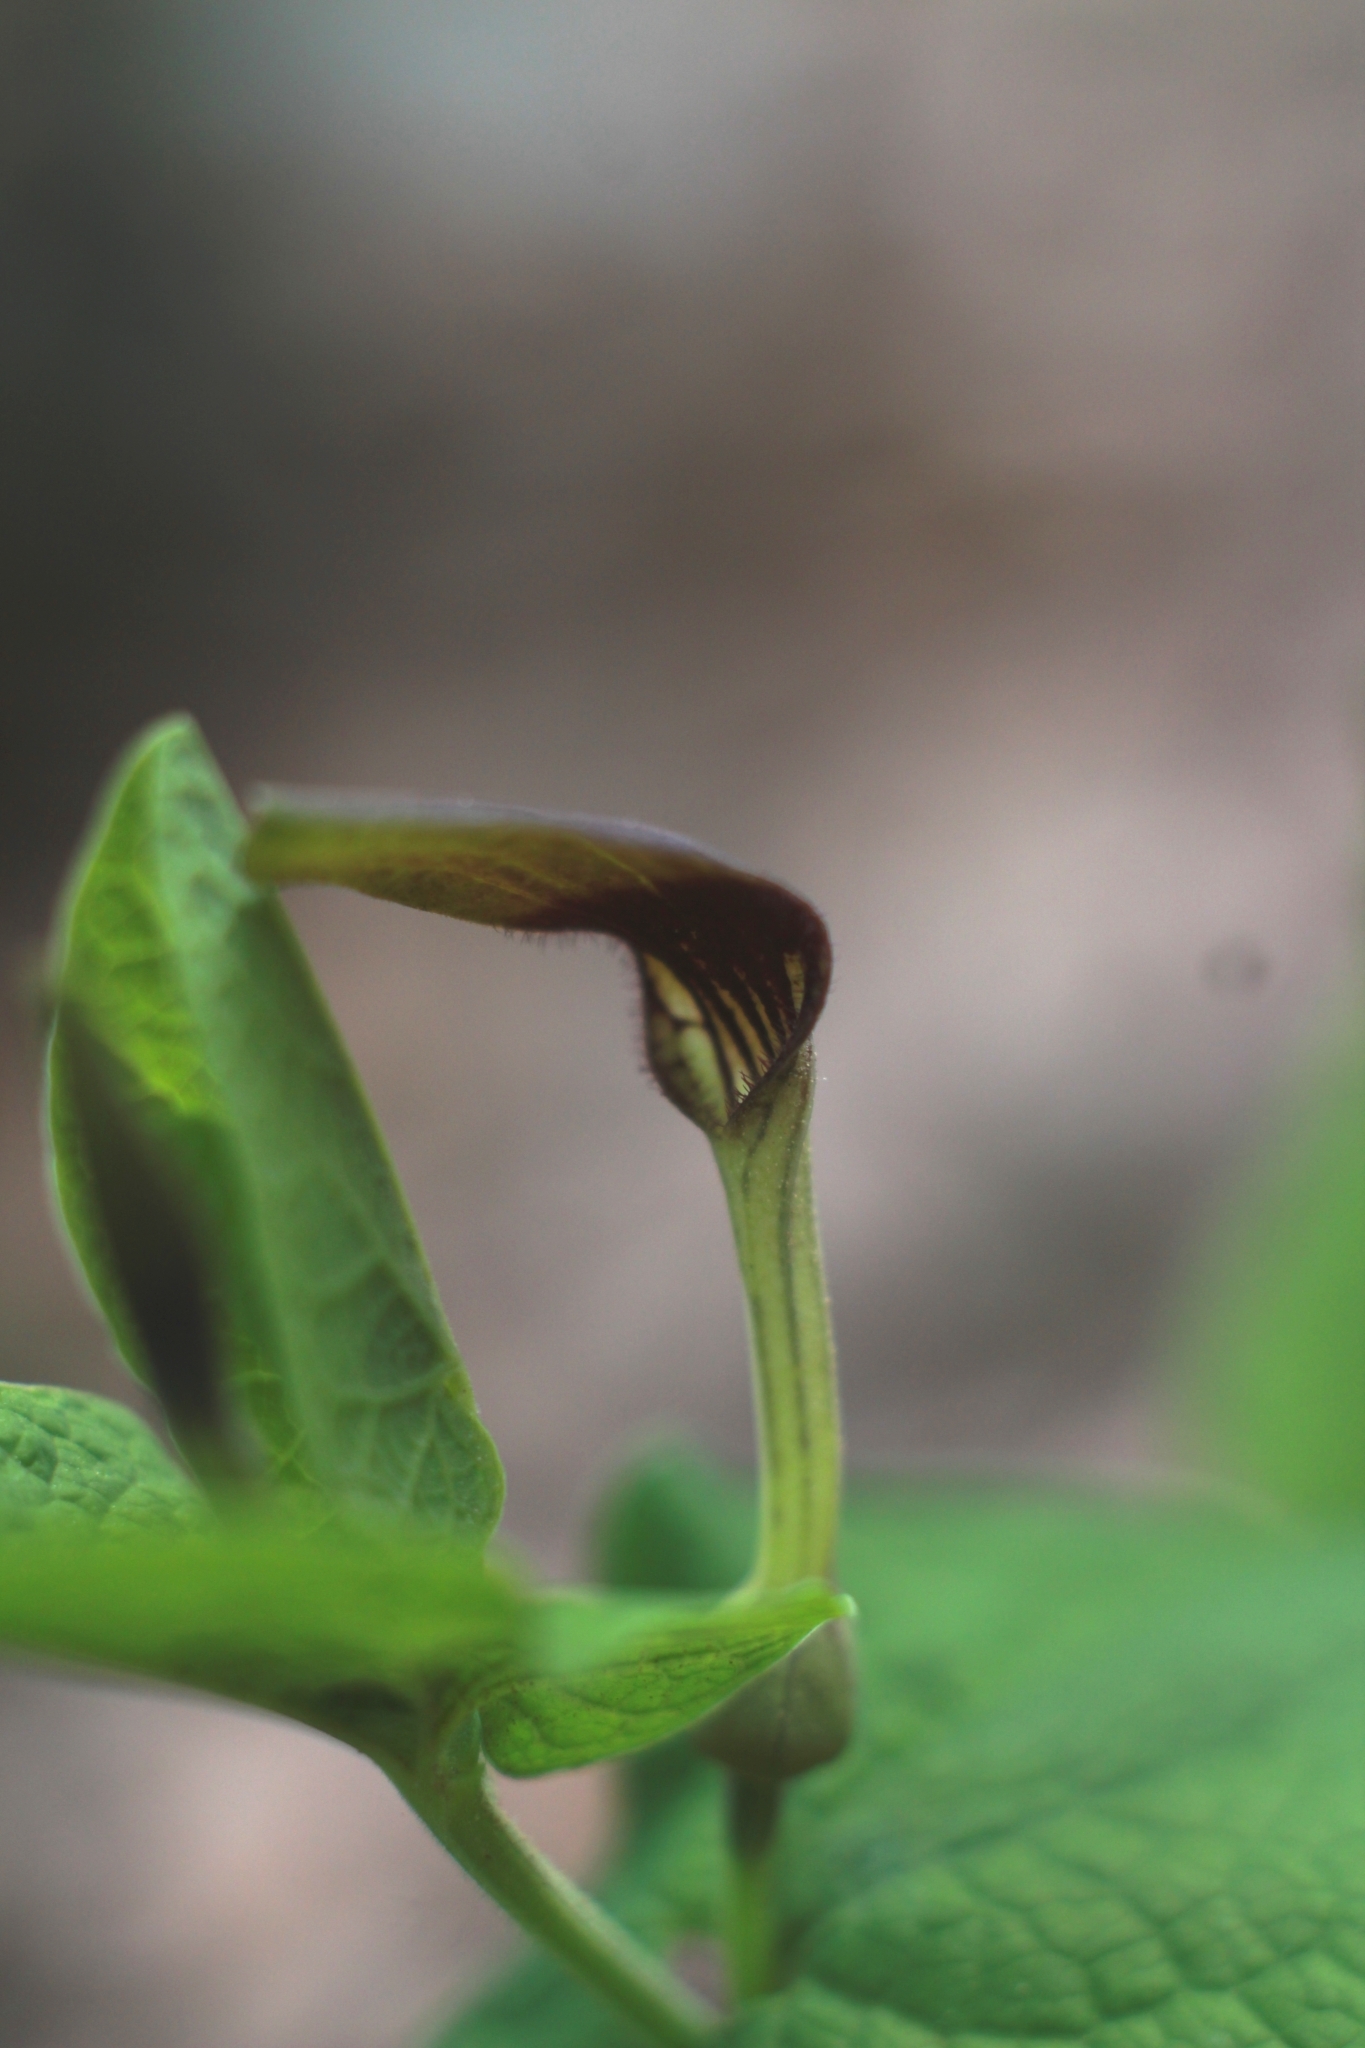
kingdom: Plantae
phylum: Tracheophyta
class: Magnoliopsida
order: Piperales
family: Aristolochiaceae
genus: Aristolochia
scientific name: Aristolochia rotunda
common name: Smearwort
